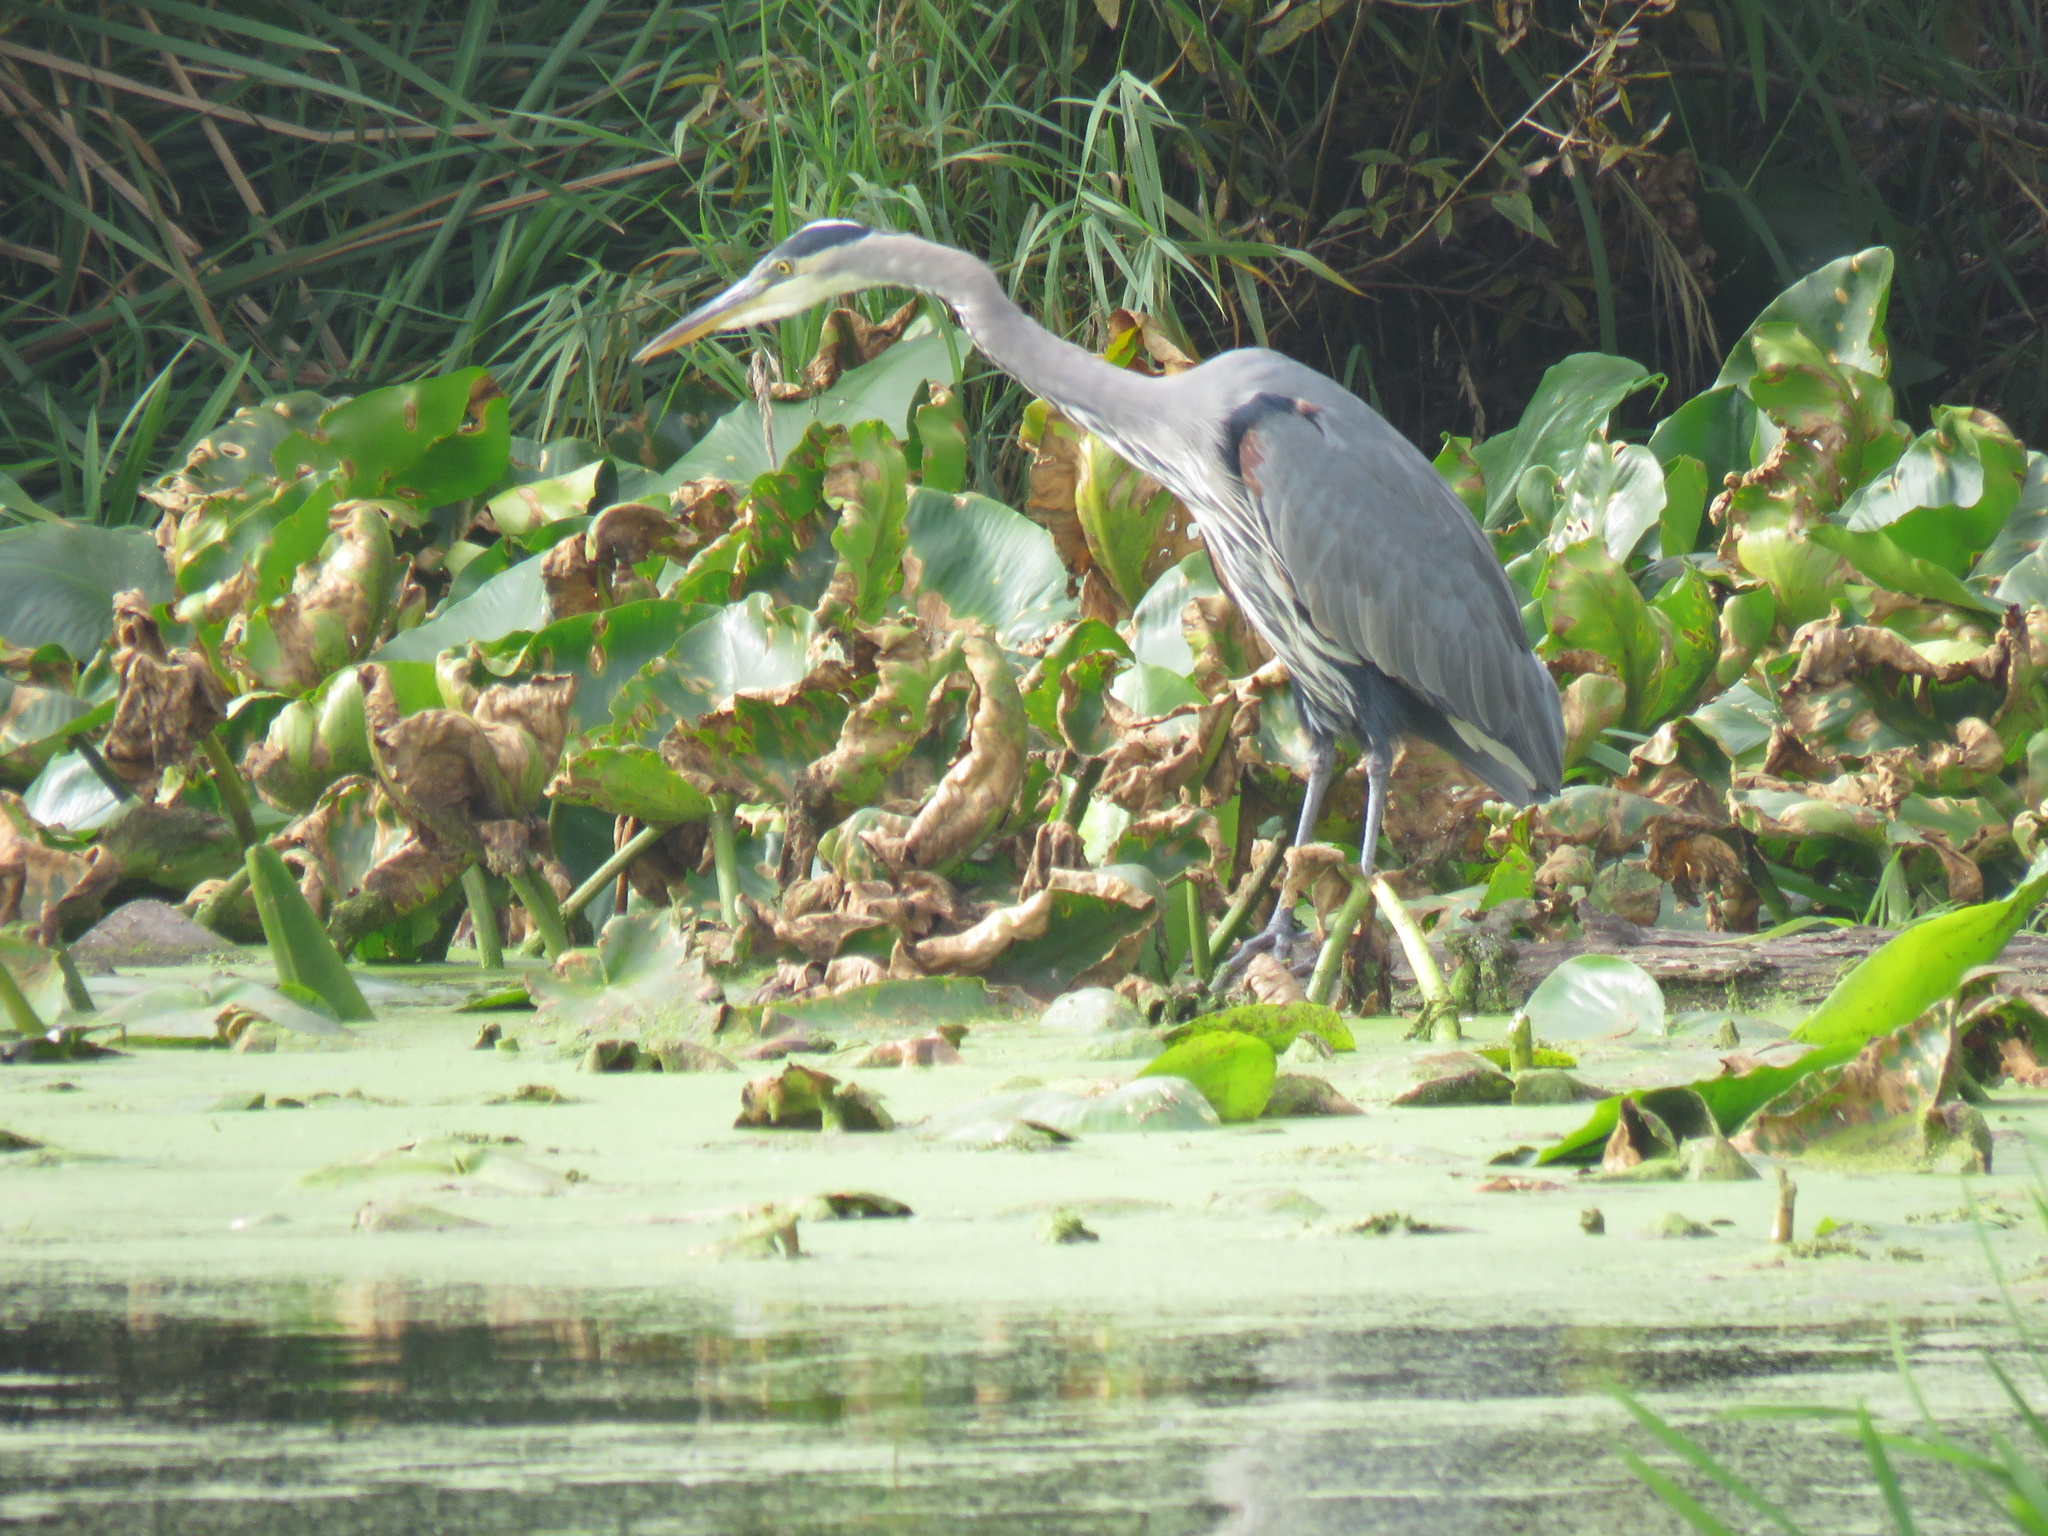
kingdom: Animalia
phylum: Chordata
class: Aves
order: Pelecaniformes
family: Ardeidae
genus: Ardea
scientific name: Ardea herodias
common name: Great blue heron
